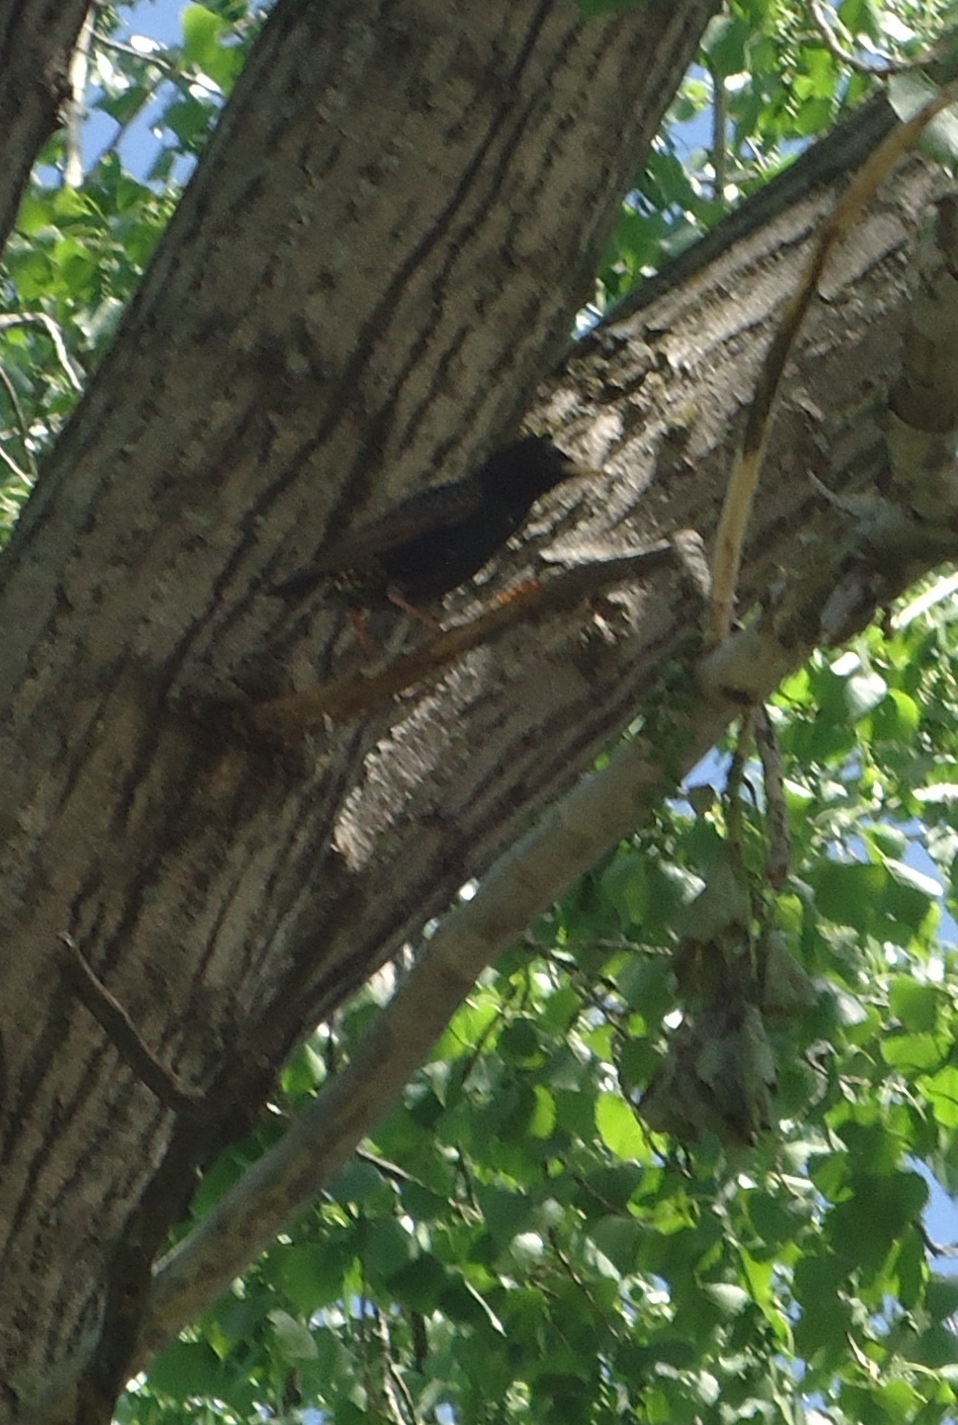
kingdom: Animalia
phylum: Chordata
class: Aves
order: Passeriformes
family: Sturnidae
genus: Sturnus
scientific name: Sturnus vulgaris
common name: Common starling
